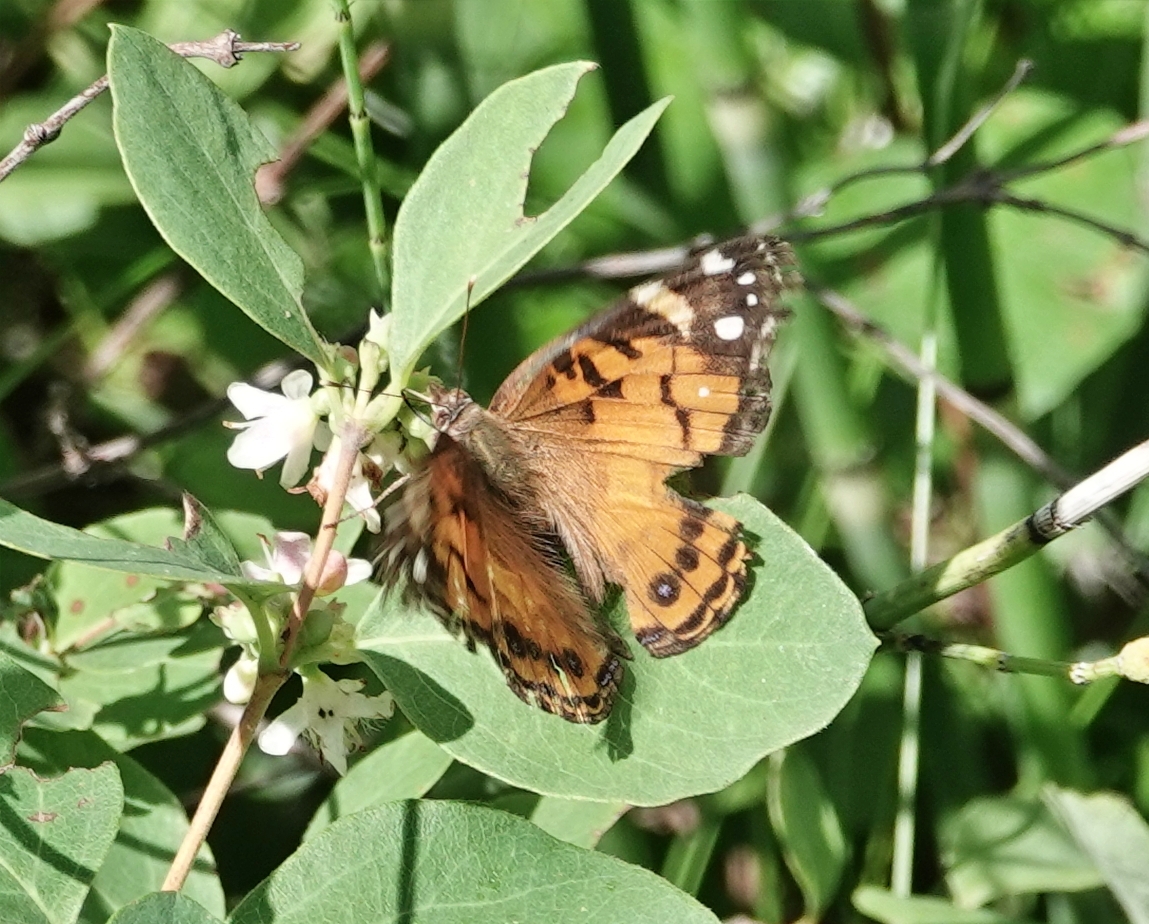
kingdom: Animalia
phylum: Arthropoda
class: Insecta
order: Lepidoptera
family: Nymphalidae
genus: Vanessa
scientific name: Vanessa virginiensis
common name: American lady
